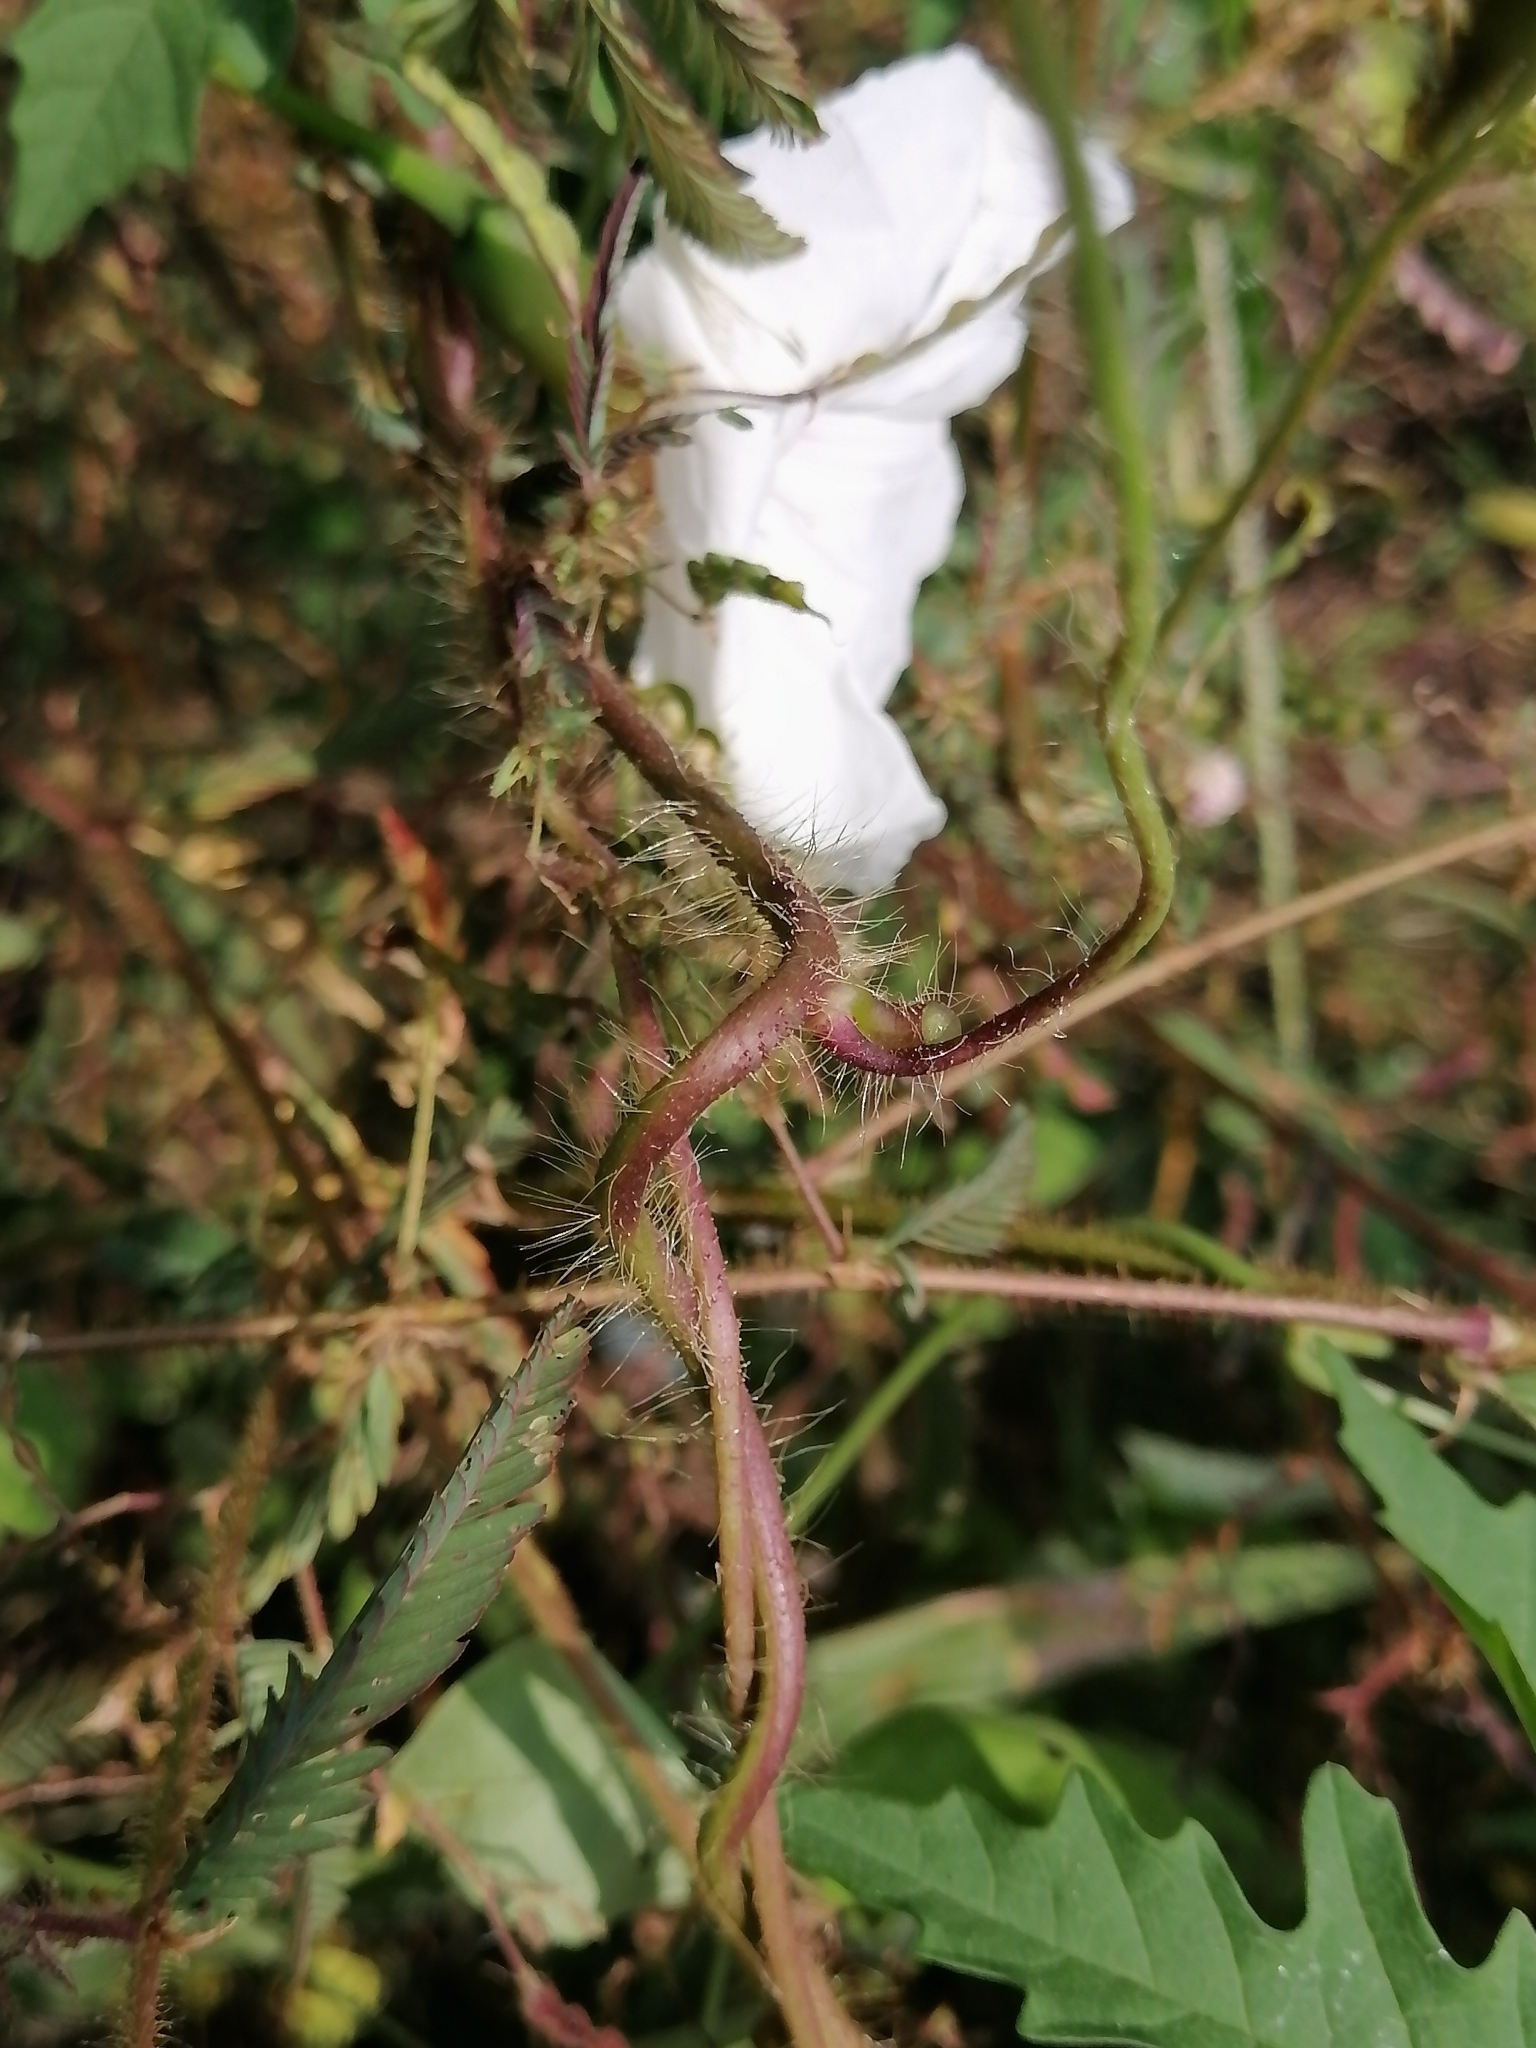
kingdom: Plantae
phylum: Tracheophyta
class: Magnoliopsida
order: Solanales
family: Convolvulaceae
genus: Distimake
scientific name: Distimake dissectus
